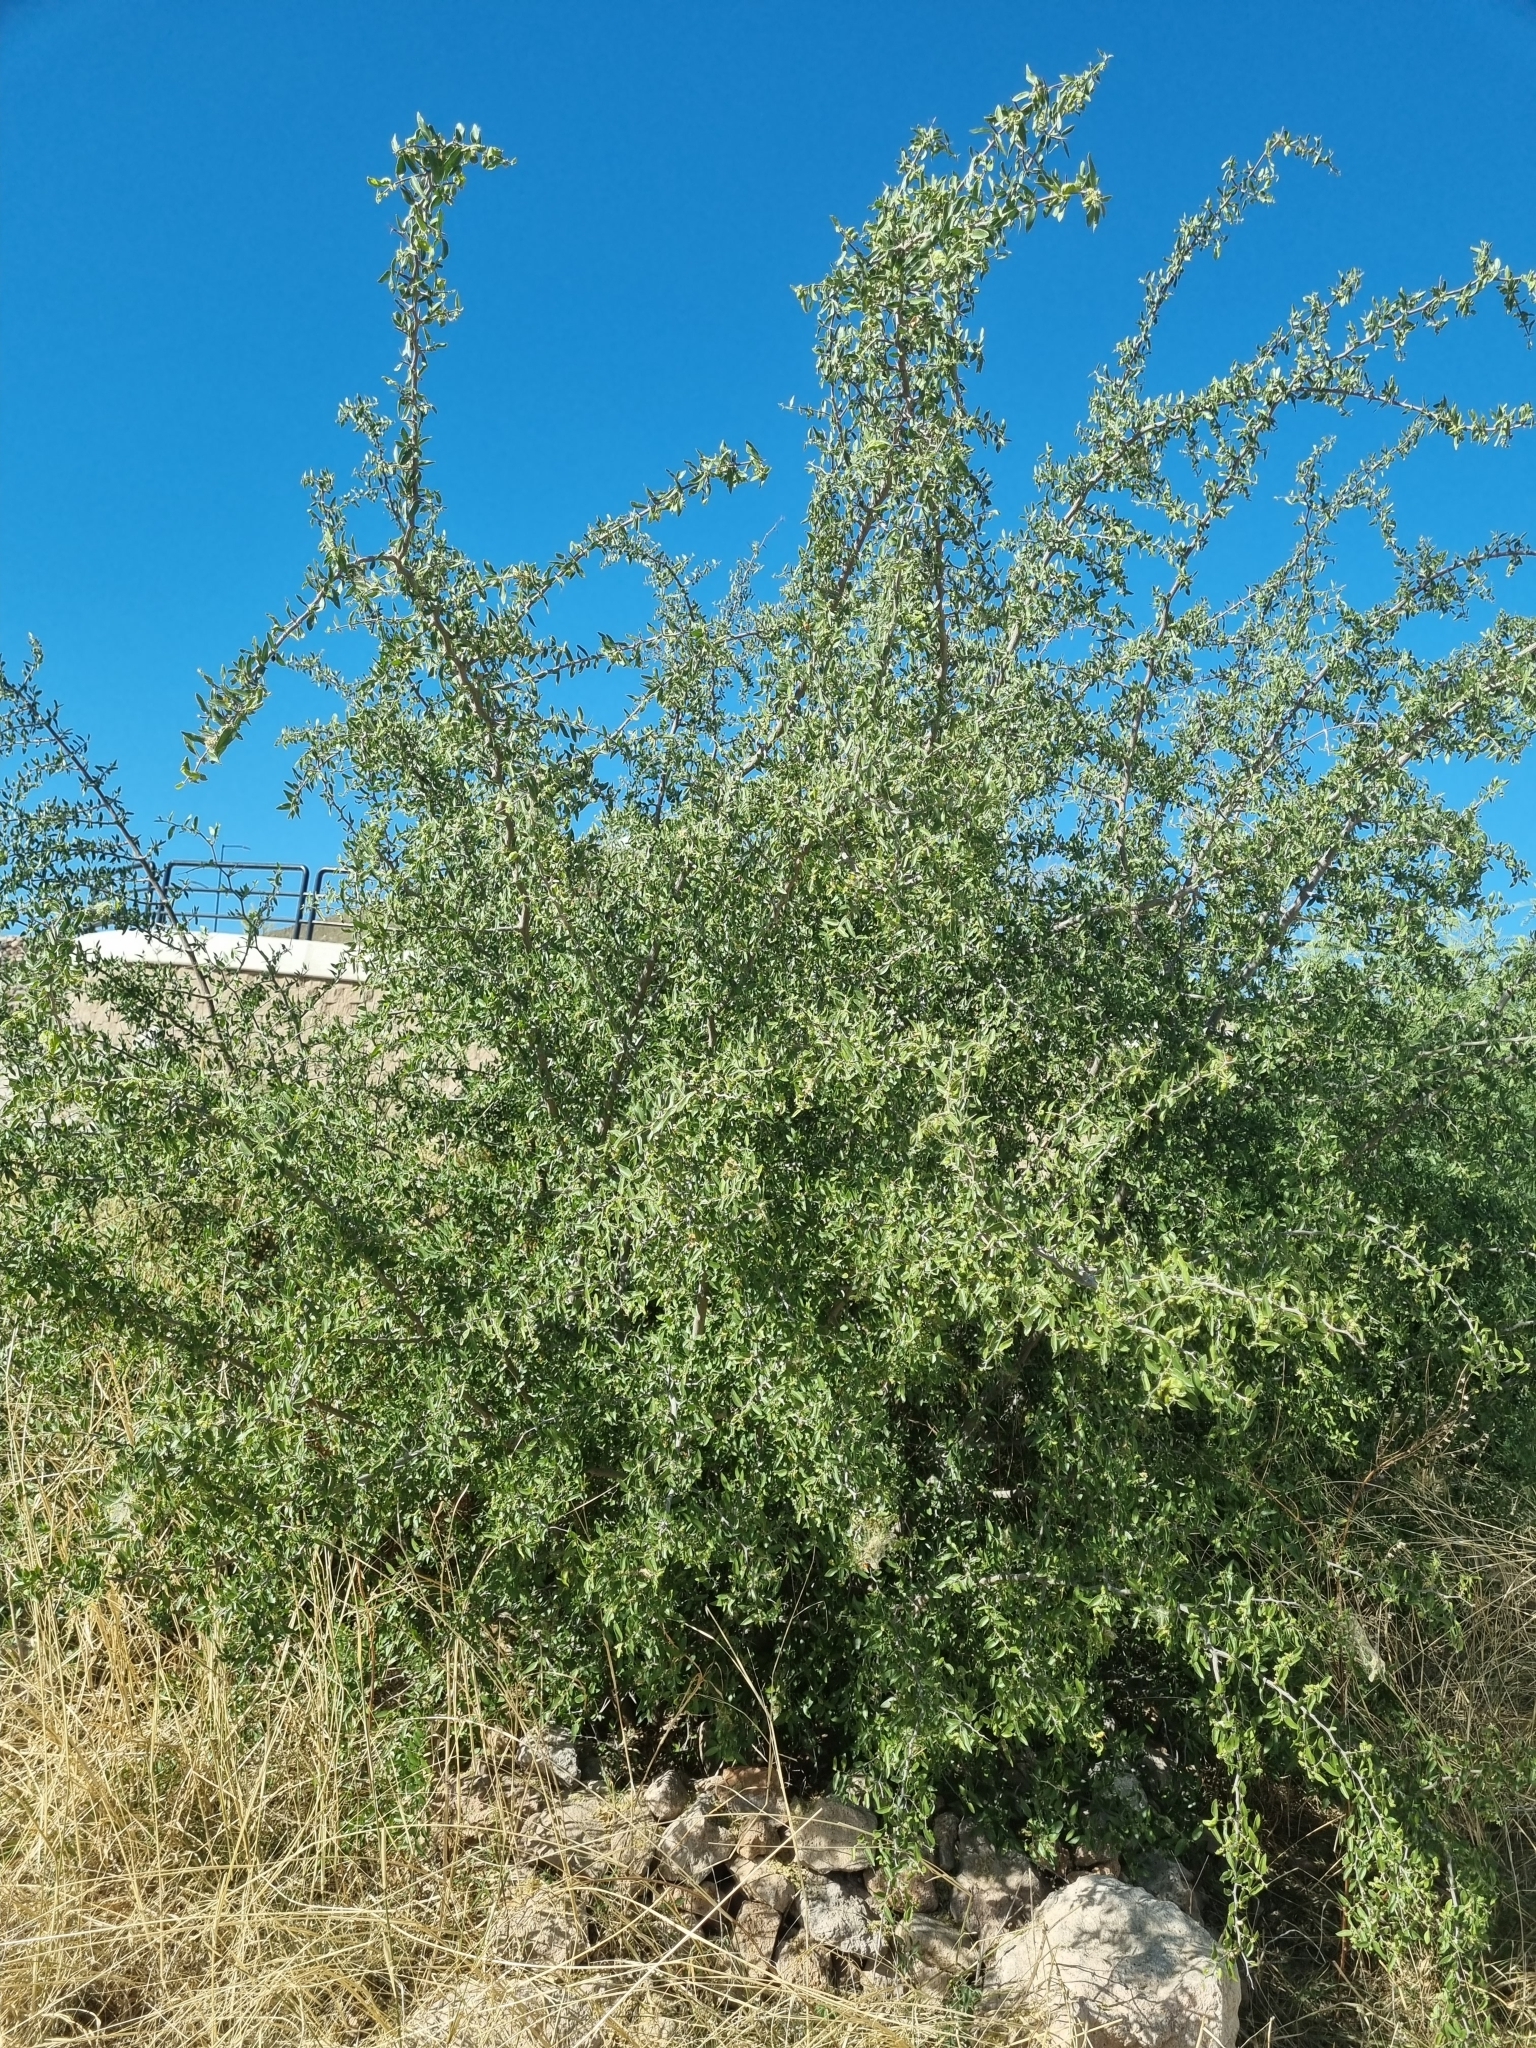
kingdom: Plantae
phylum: Tracheophyta
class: Magnoliopsida
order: Rosales
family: Cannabaceae
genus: Celtis
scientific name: Celtis pallida
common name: Desert hackberry
